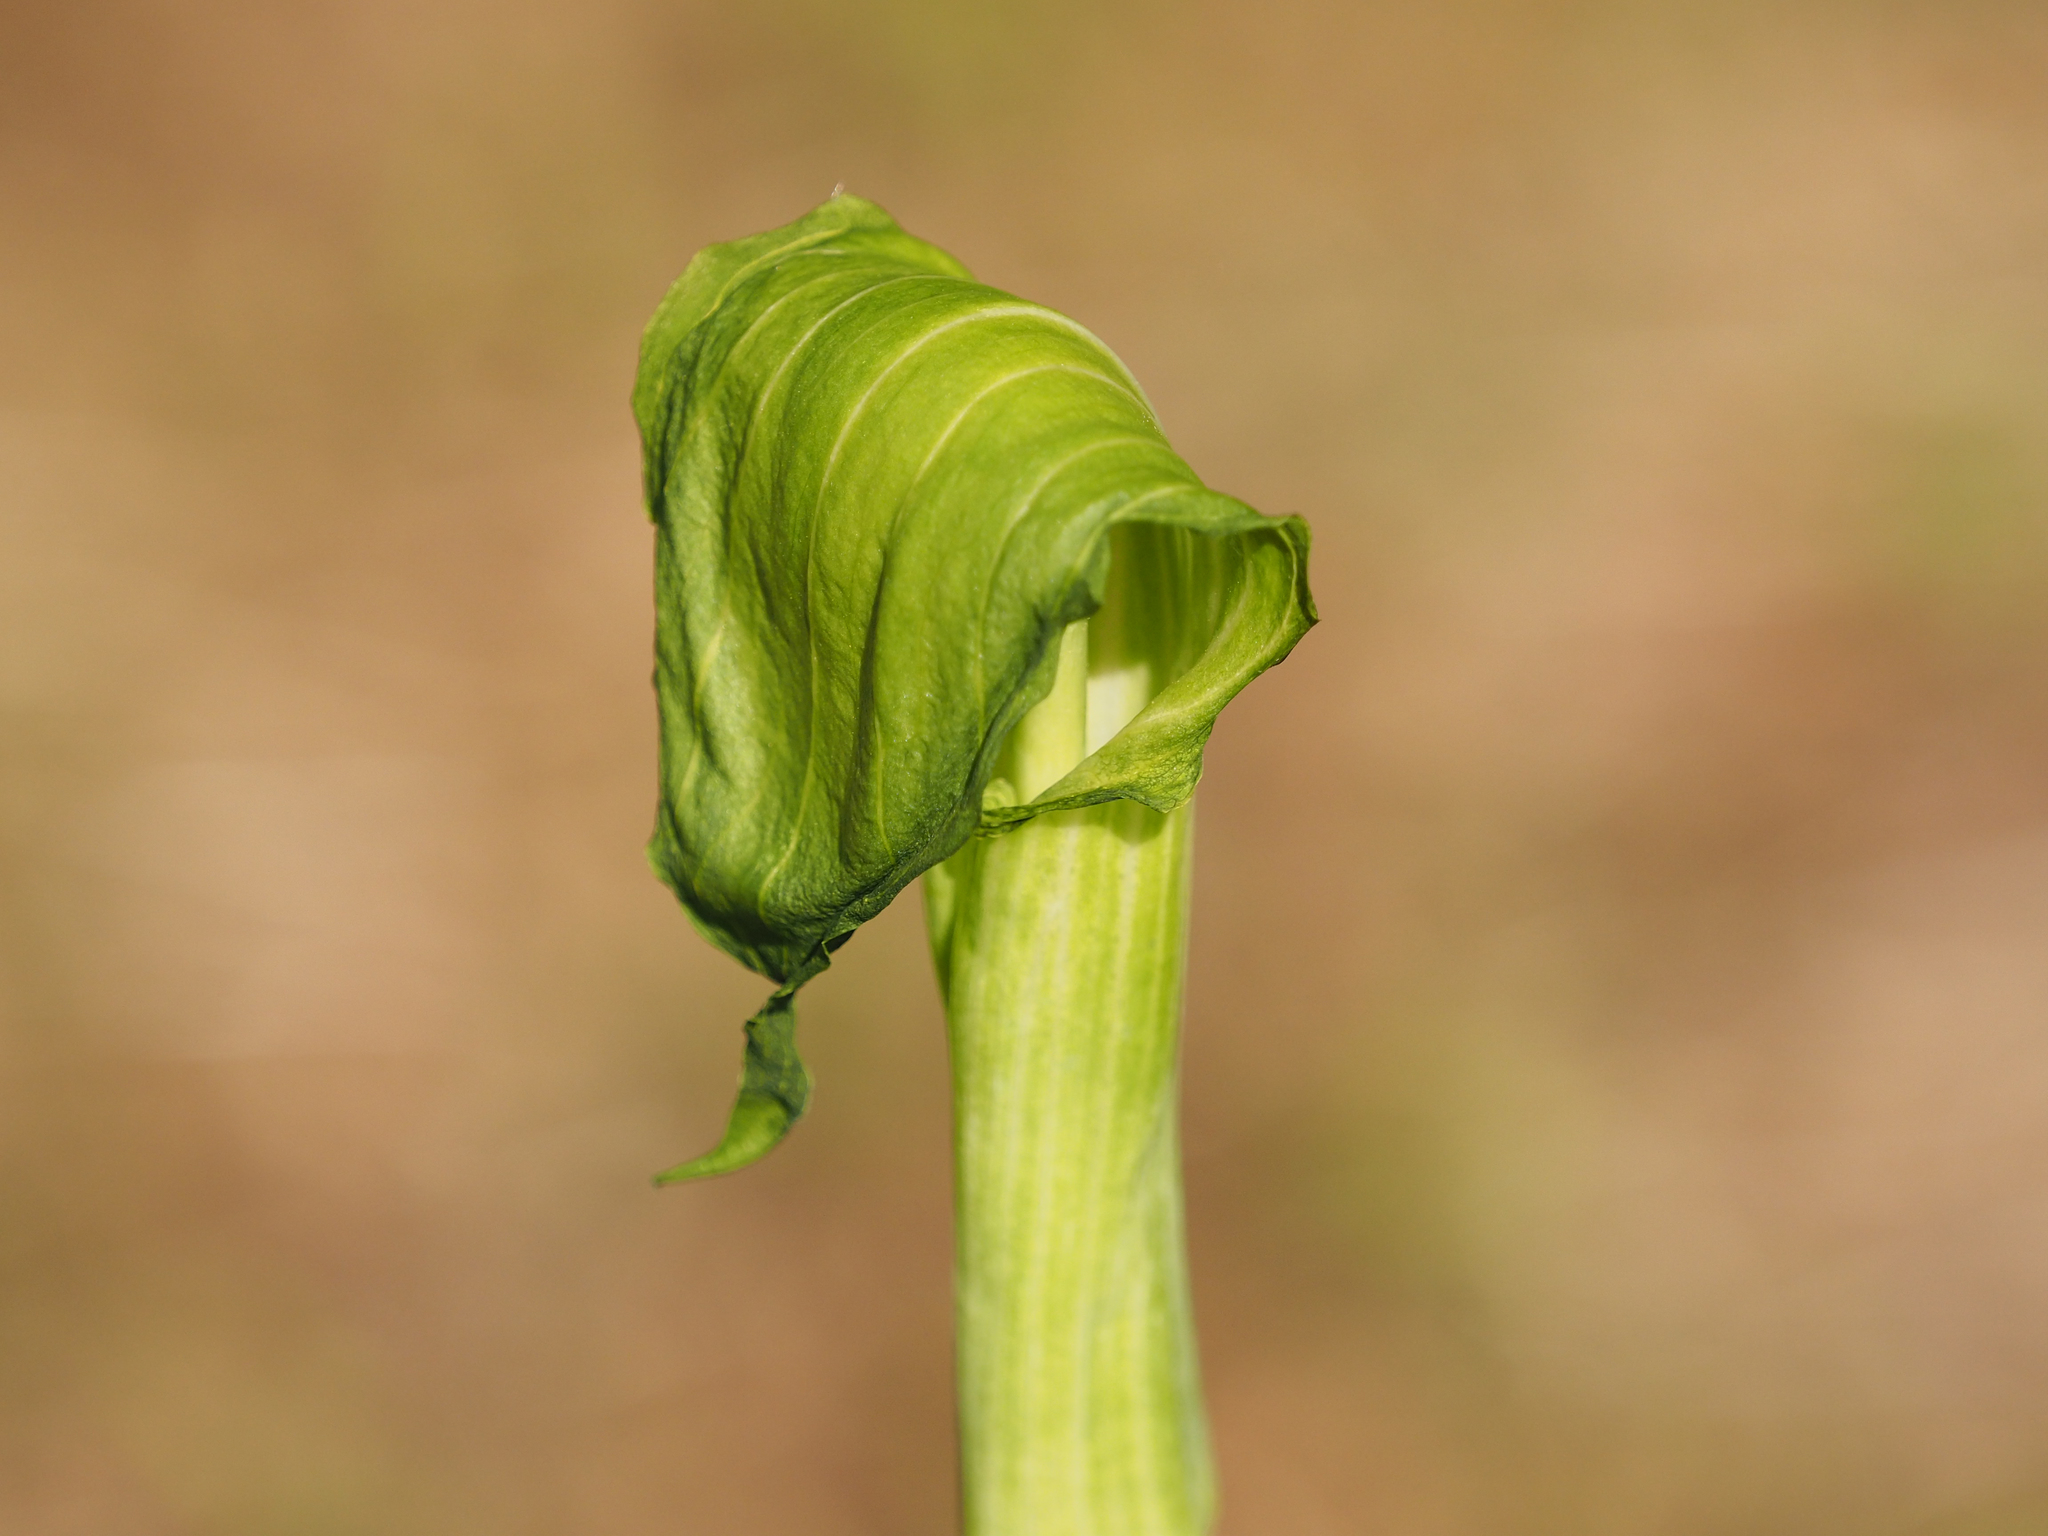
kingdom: Plantae
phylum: Tracheophyta
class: Liliopsida
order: Alismatales
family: Araceae
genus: Arisaema
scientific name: Arisaema triphyllum
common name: Jack-in-the-pulpit
